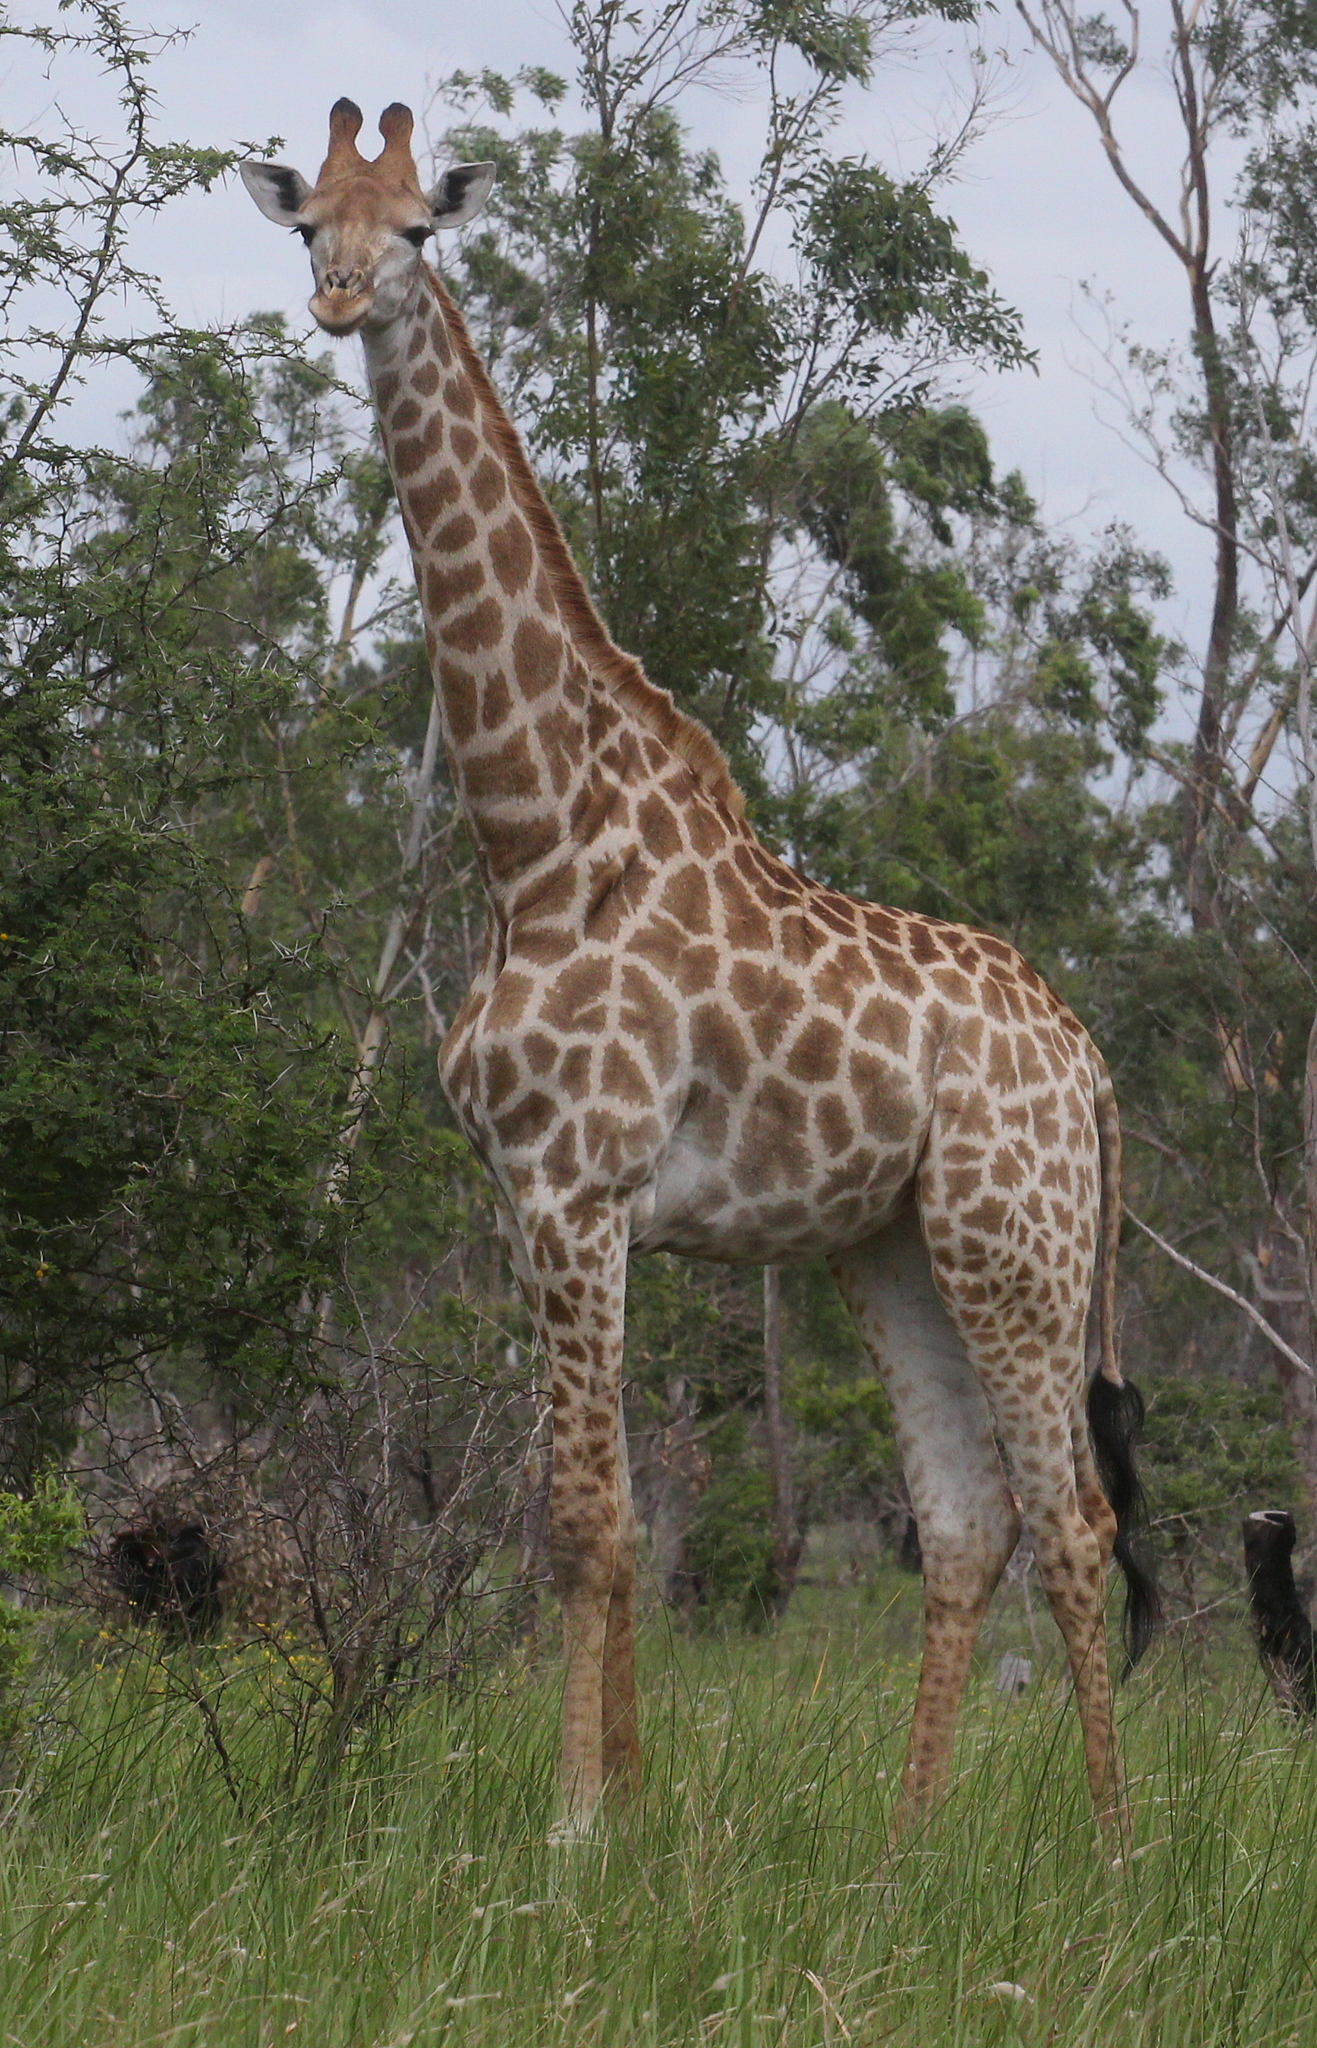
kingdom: Animalia
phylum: Chordata
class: Mammalia
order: Artiodactyla
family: Giraffidae
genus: Giraffa
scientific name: Giraffa giraffa
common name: Southern giraffe
